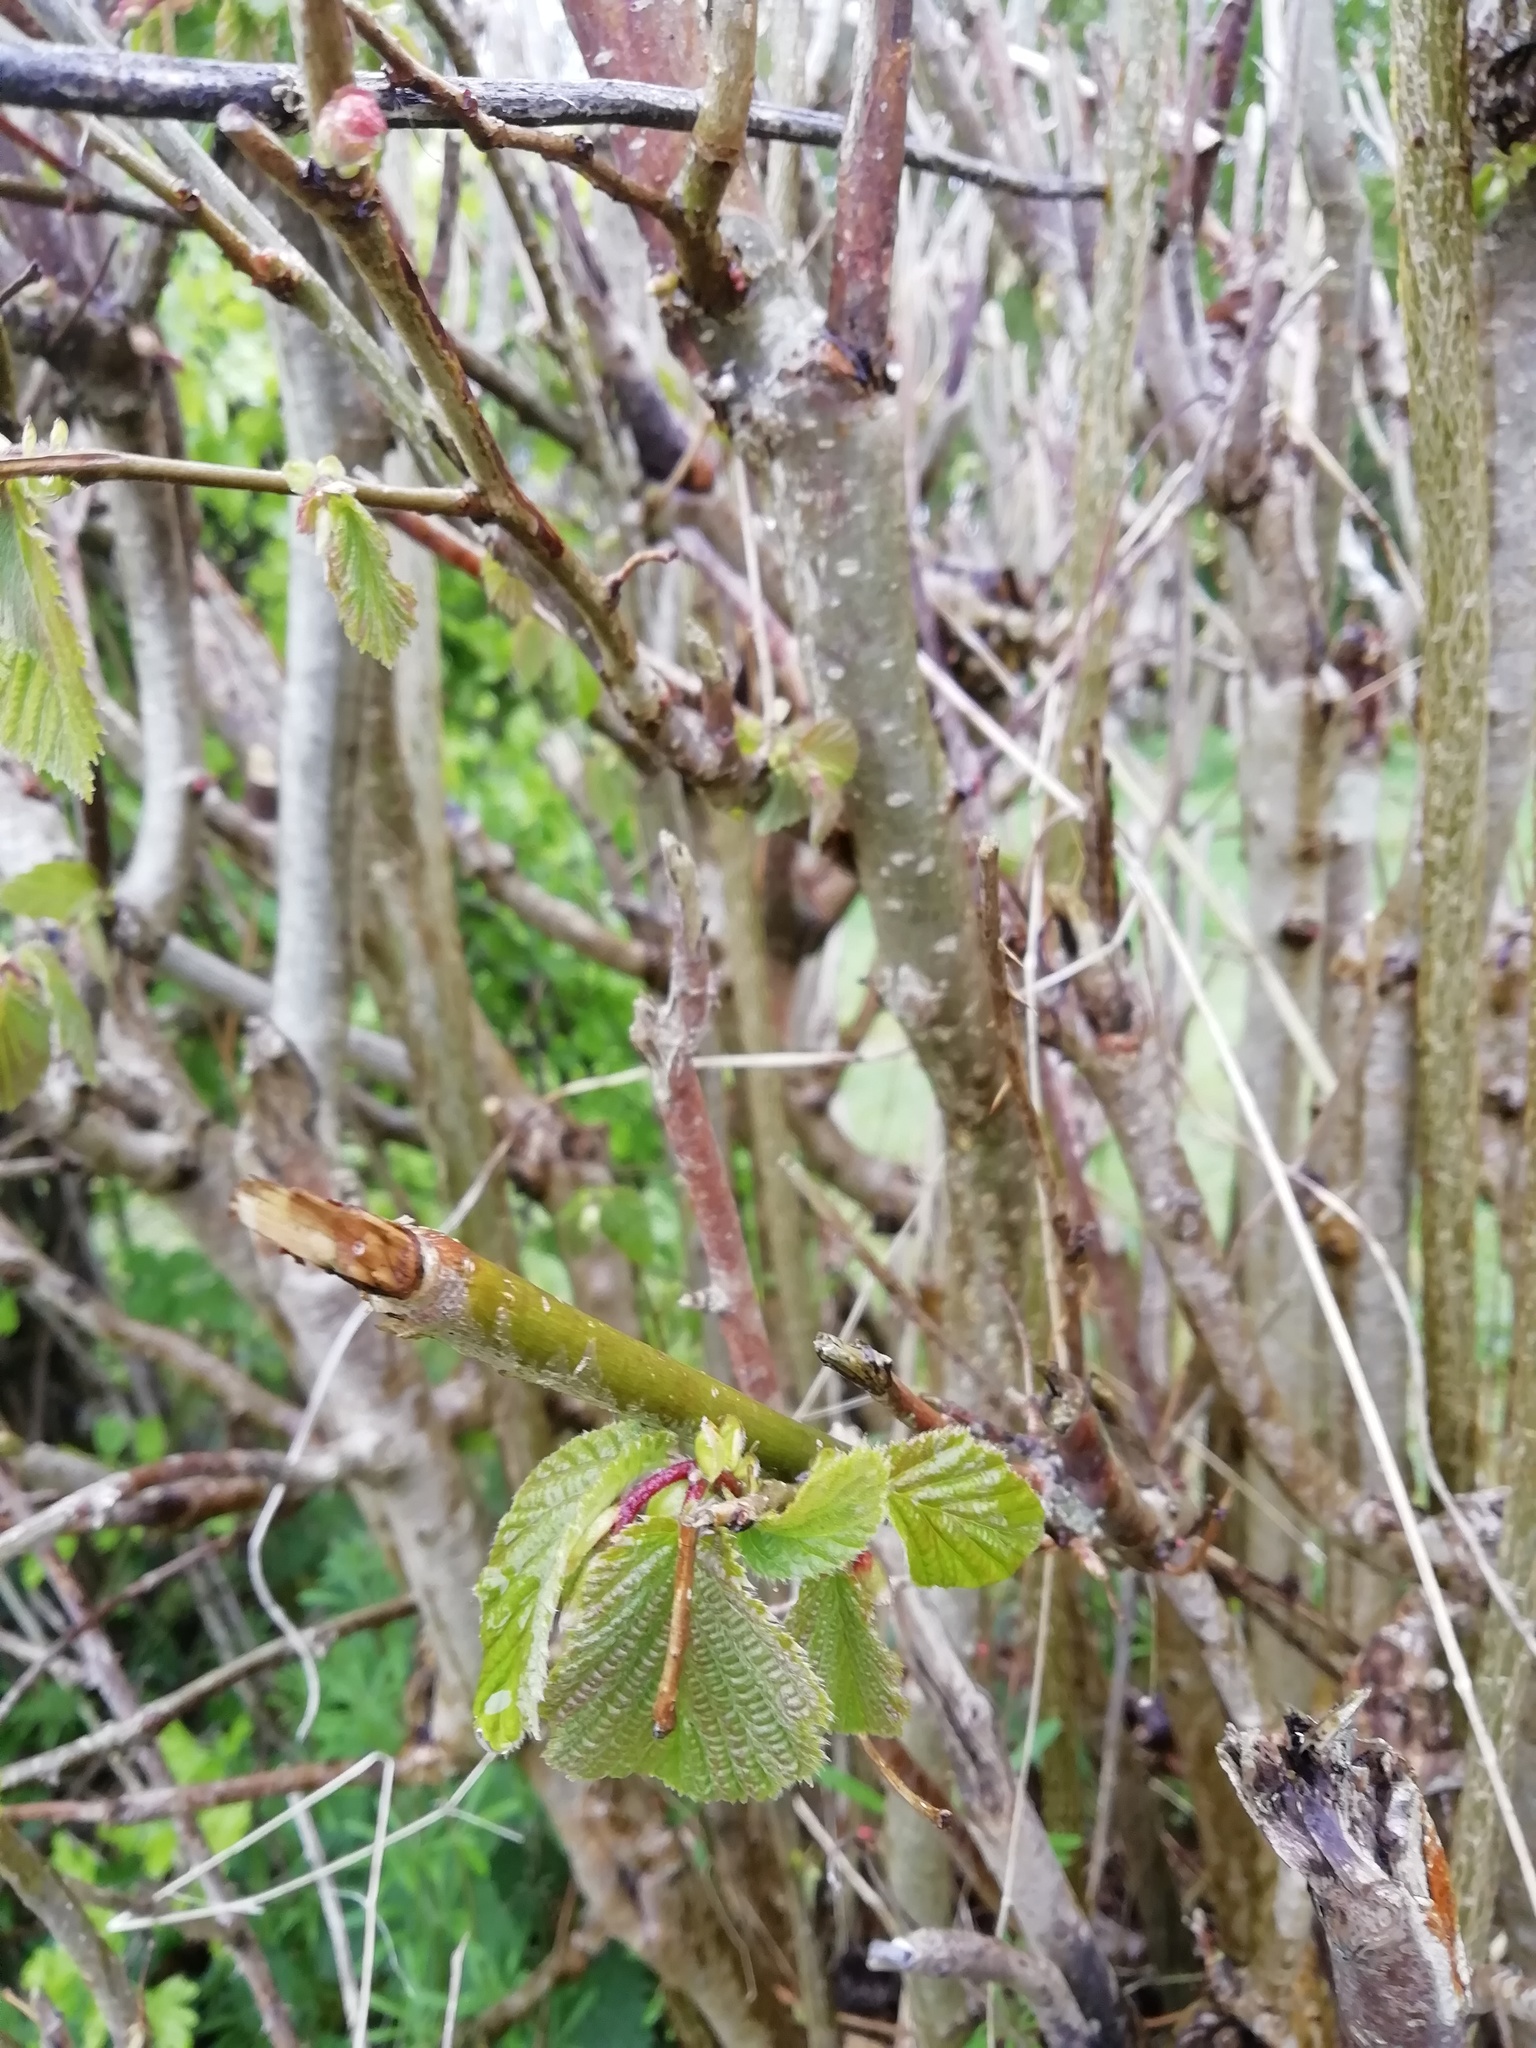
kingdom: Plantae
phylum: Tracheophyta
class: Magnoliopsida
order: Fagales
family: Betulaceae
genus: Corylus
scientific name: Corylus avellana
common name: European hazel
